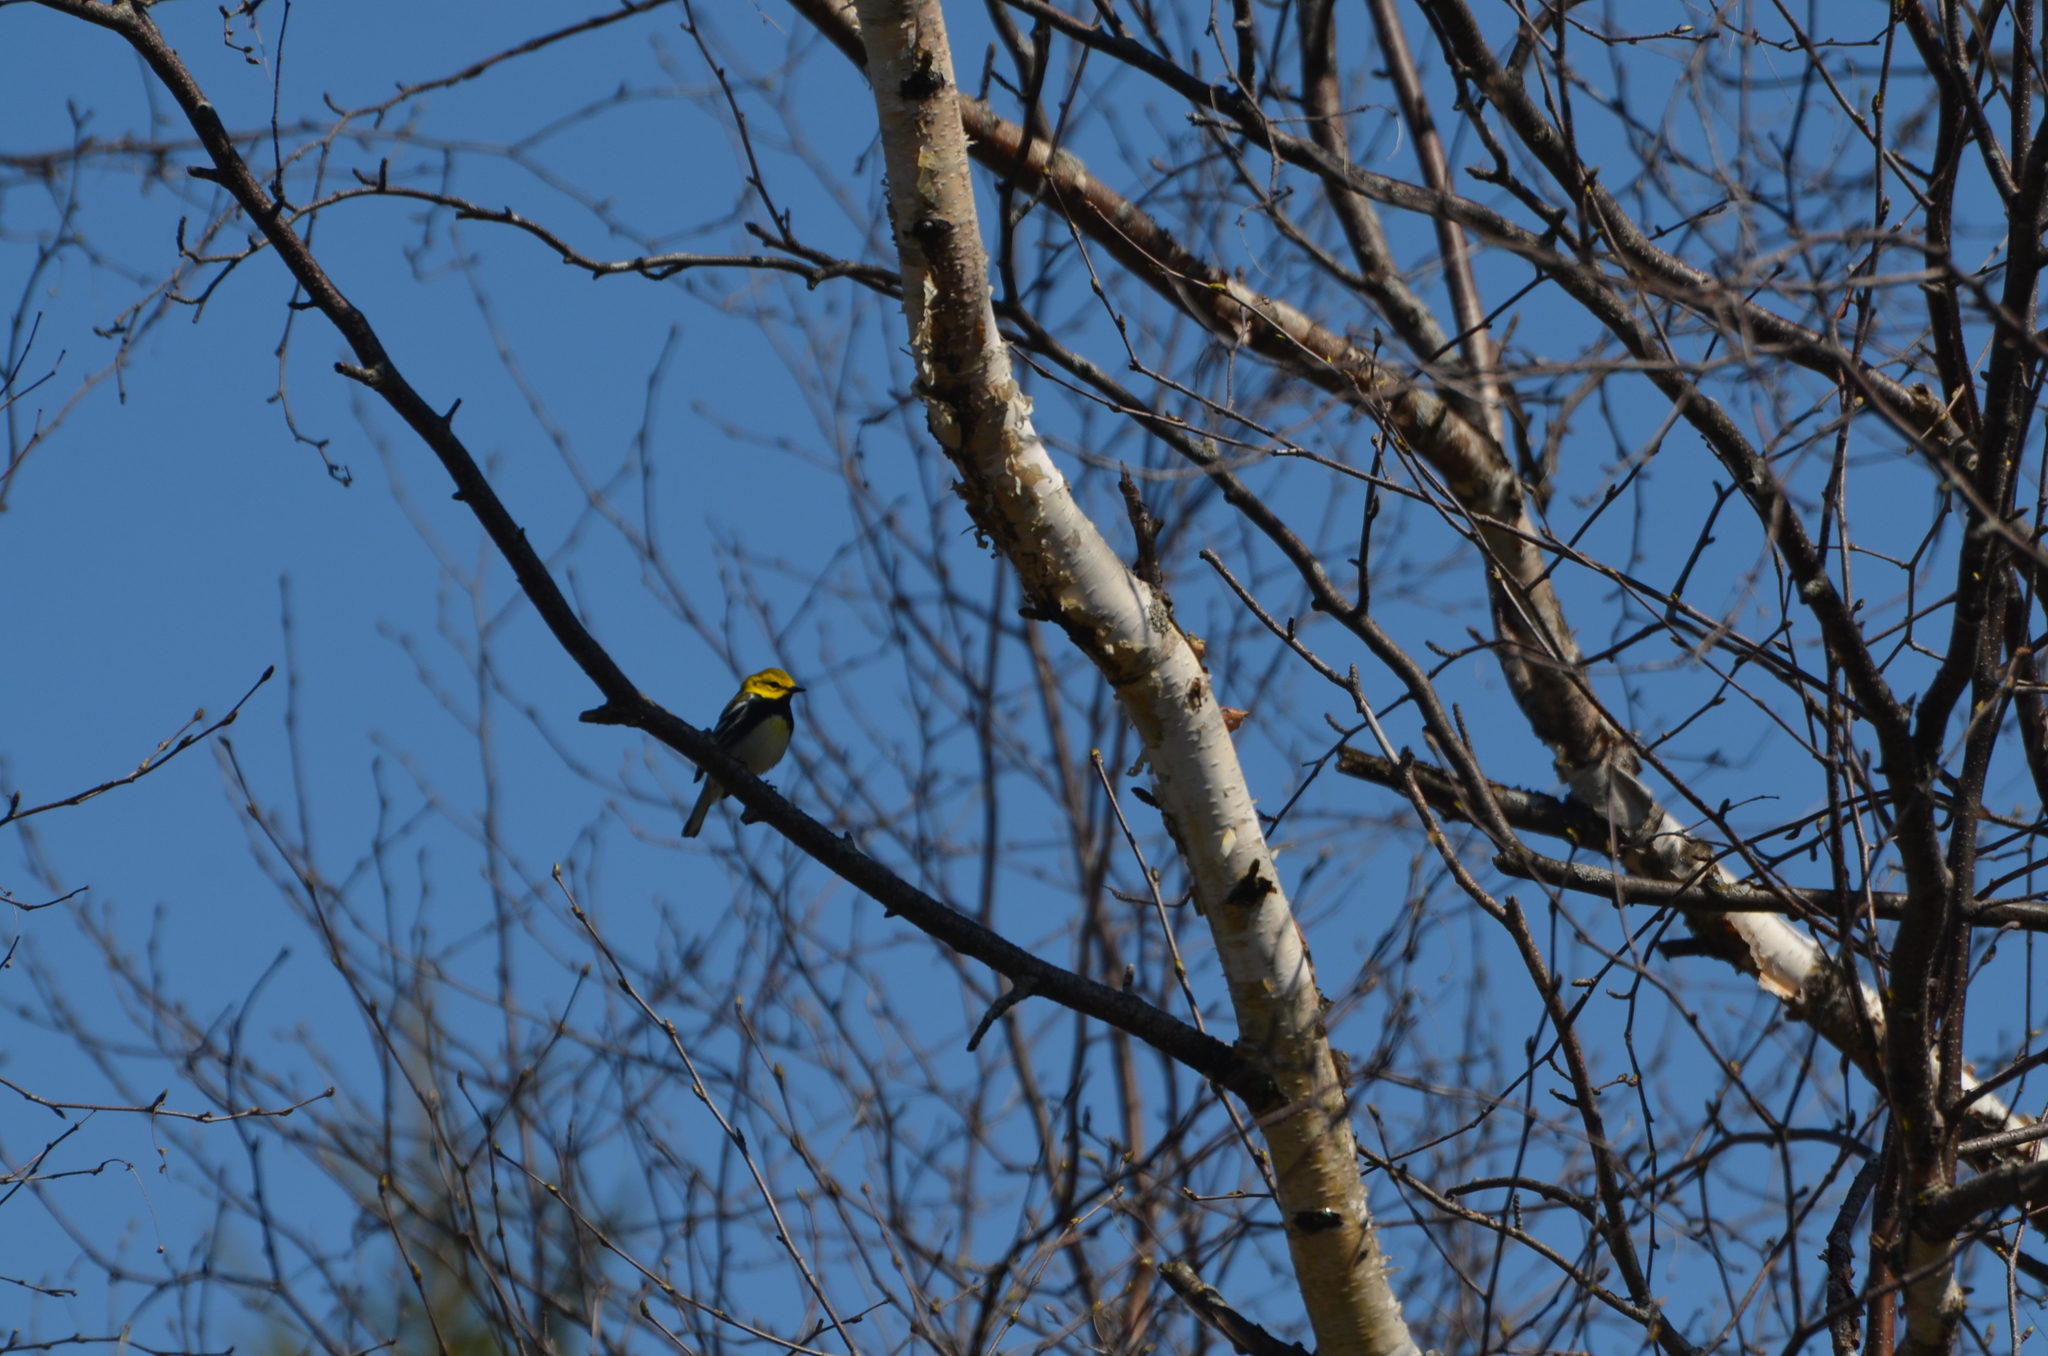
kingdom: Animalia
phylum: Chordata
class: Aves
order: Passeriformes
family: Parulidae
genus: Setophaga
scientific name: Setophaga virens
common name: Black-throated green warbler
